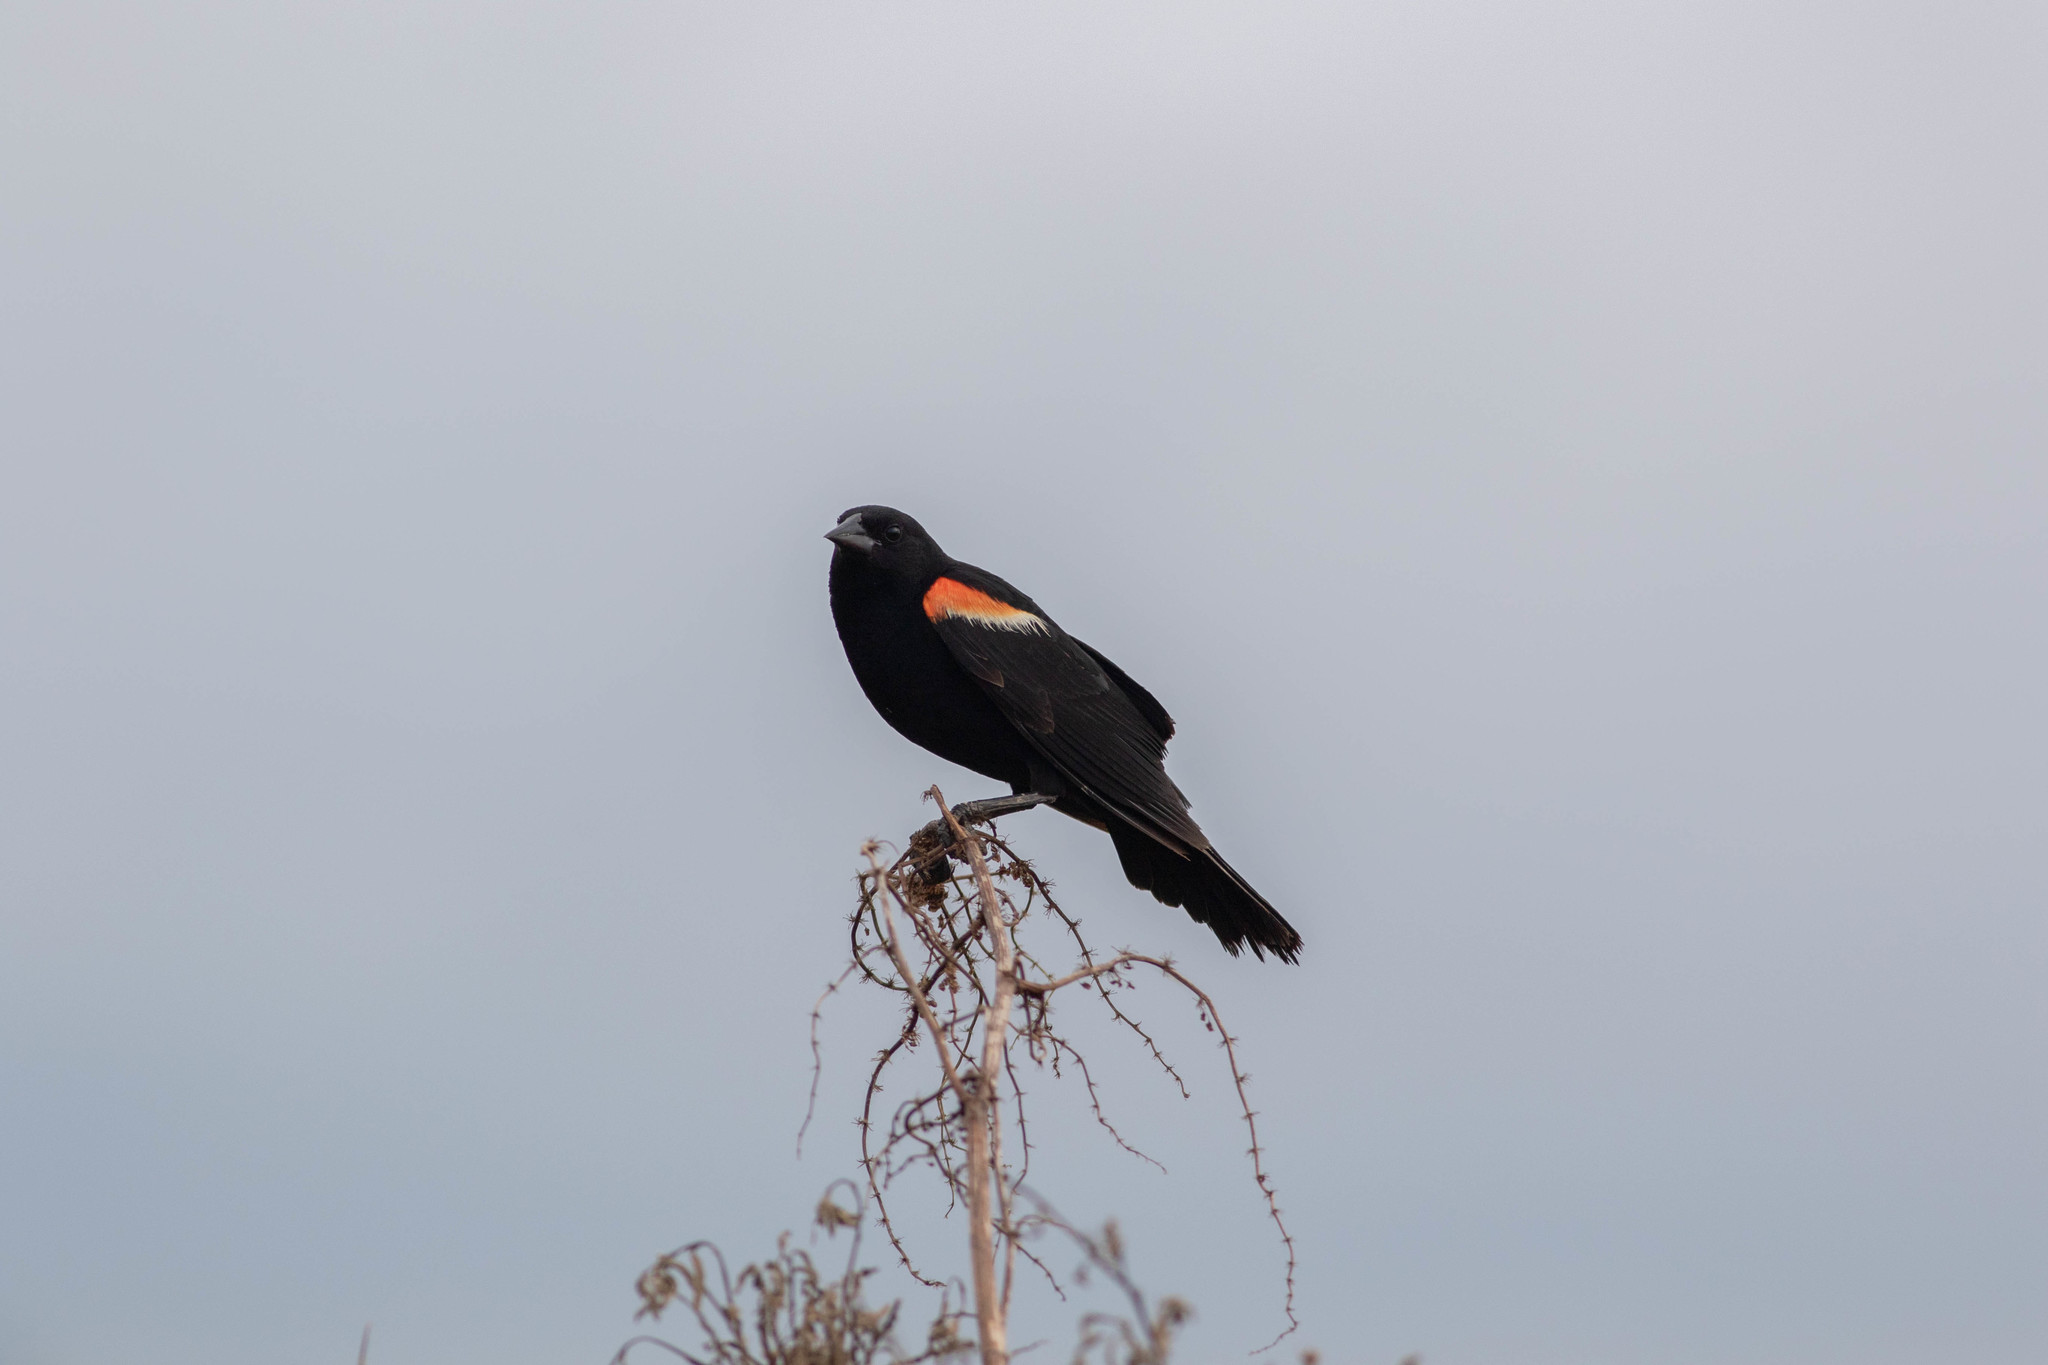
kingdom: Animalia
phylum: Chordata
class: Aves
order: Passeriformes
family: Icteridae
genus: Agelaius
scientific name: Agelaius phoeniceus
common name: Red-winged blackbird
